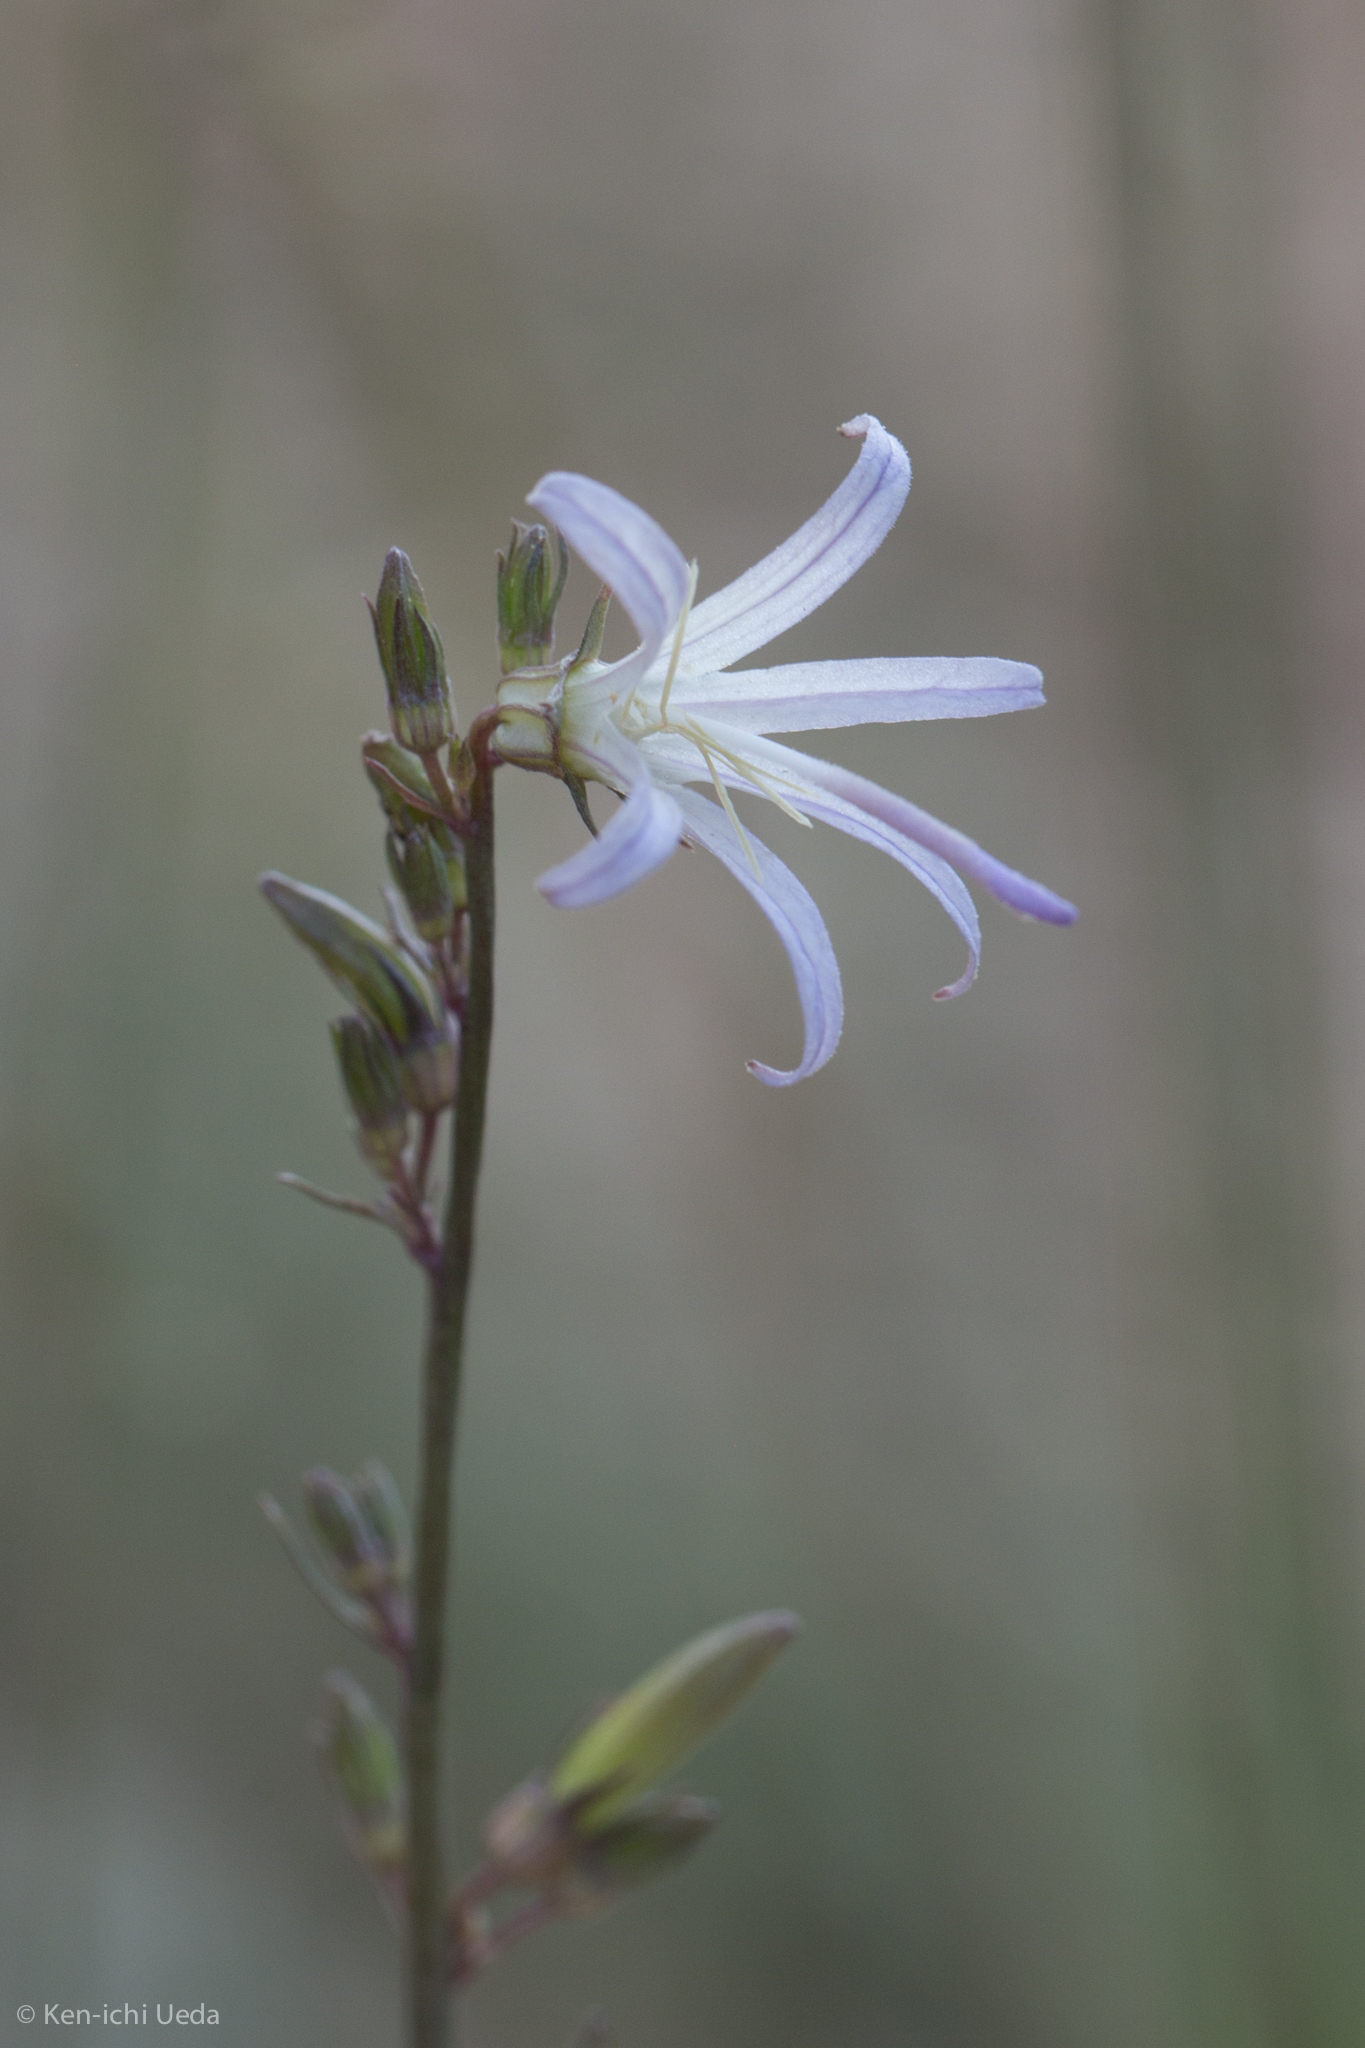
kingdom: Plantae
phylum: Tracheophyta
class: Magnoliopsida
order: Asterales
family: Campanulaceae
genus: Smithiastrum
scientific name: Smithiastrum prenanthoides
